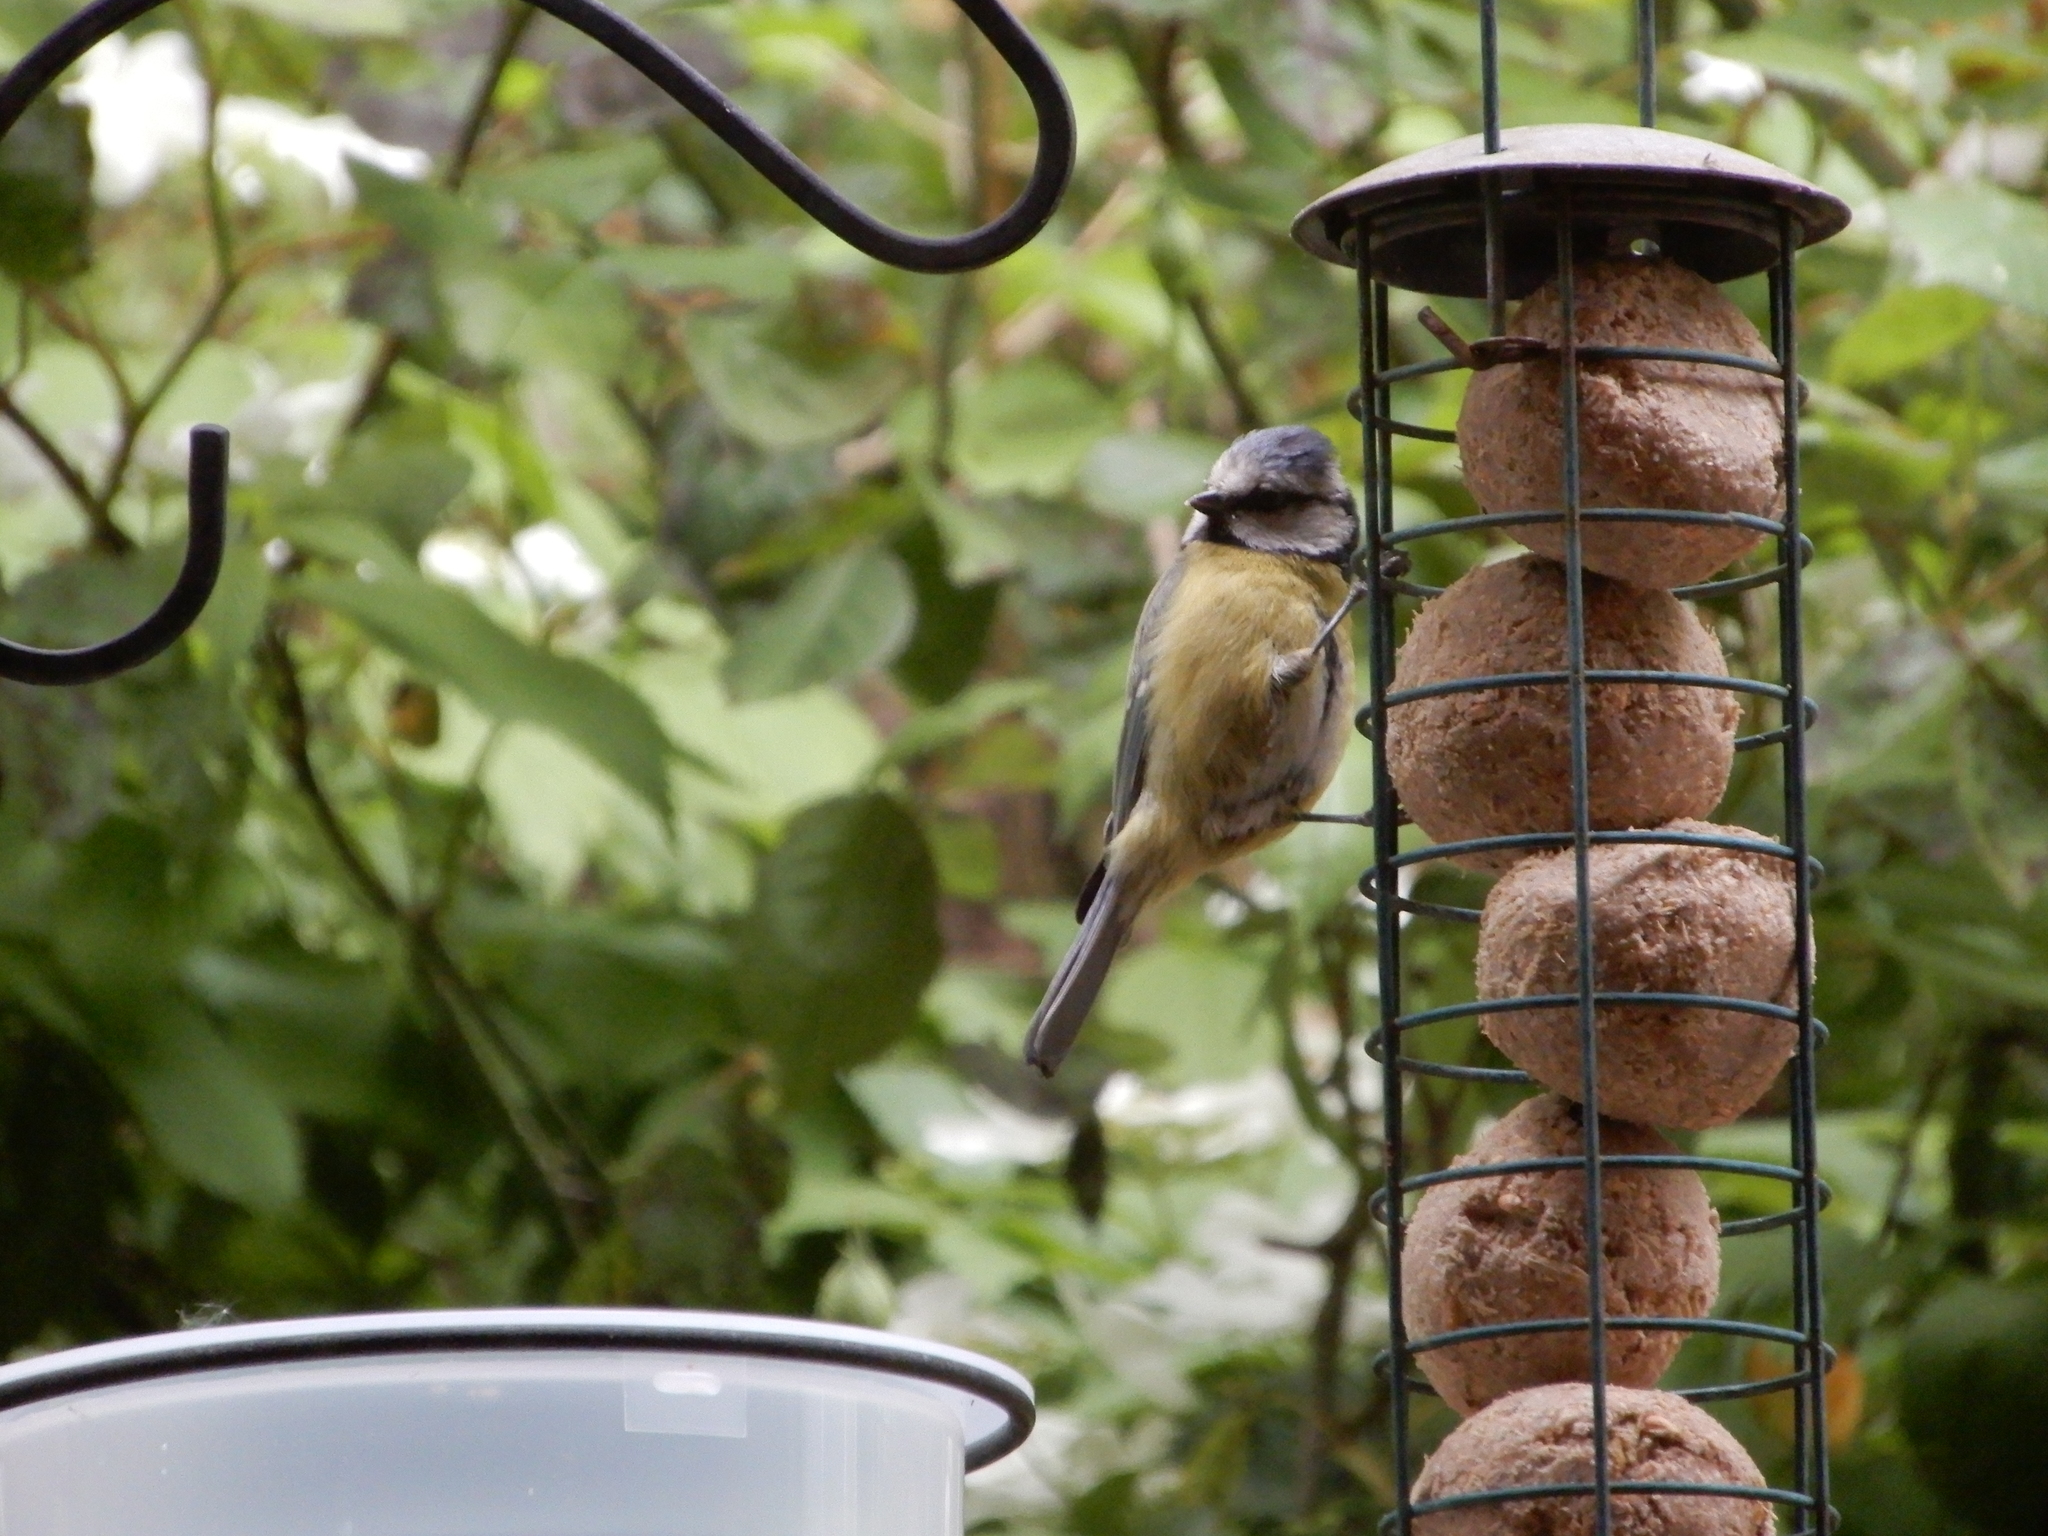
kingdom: Animalia
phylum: Chordata
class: Aves
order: Passeriformes
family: Paridae
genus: Cyanistes
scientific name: Cyanistes caeruleus
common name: Eurasian blue tit
